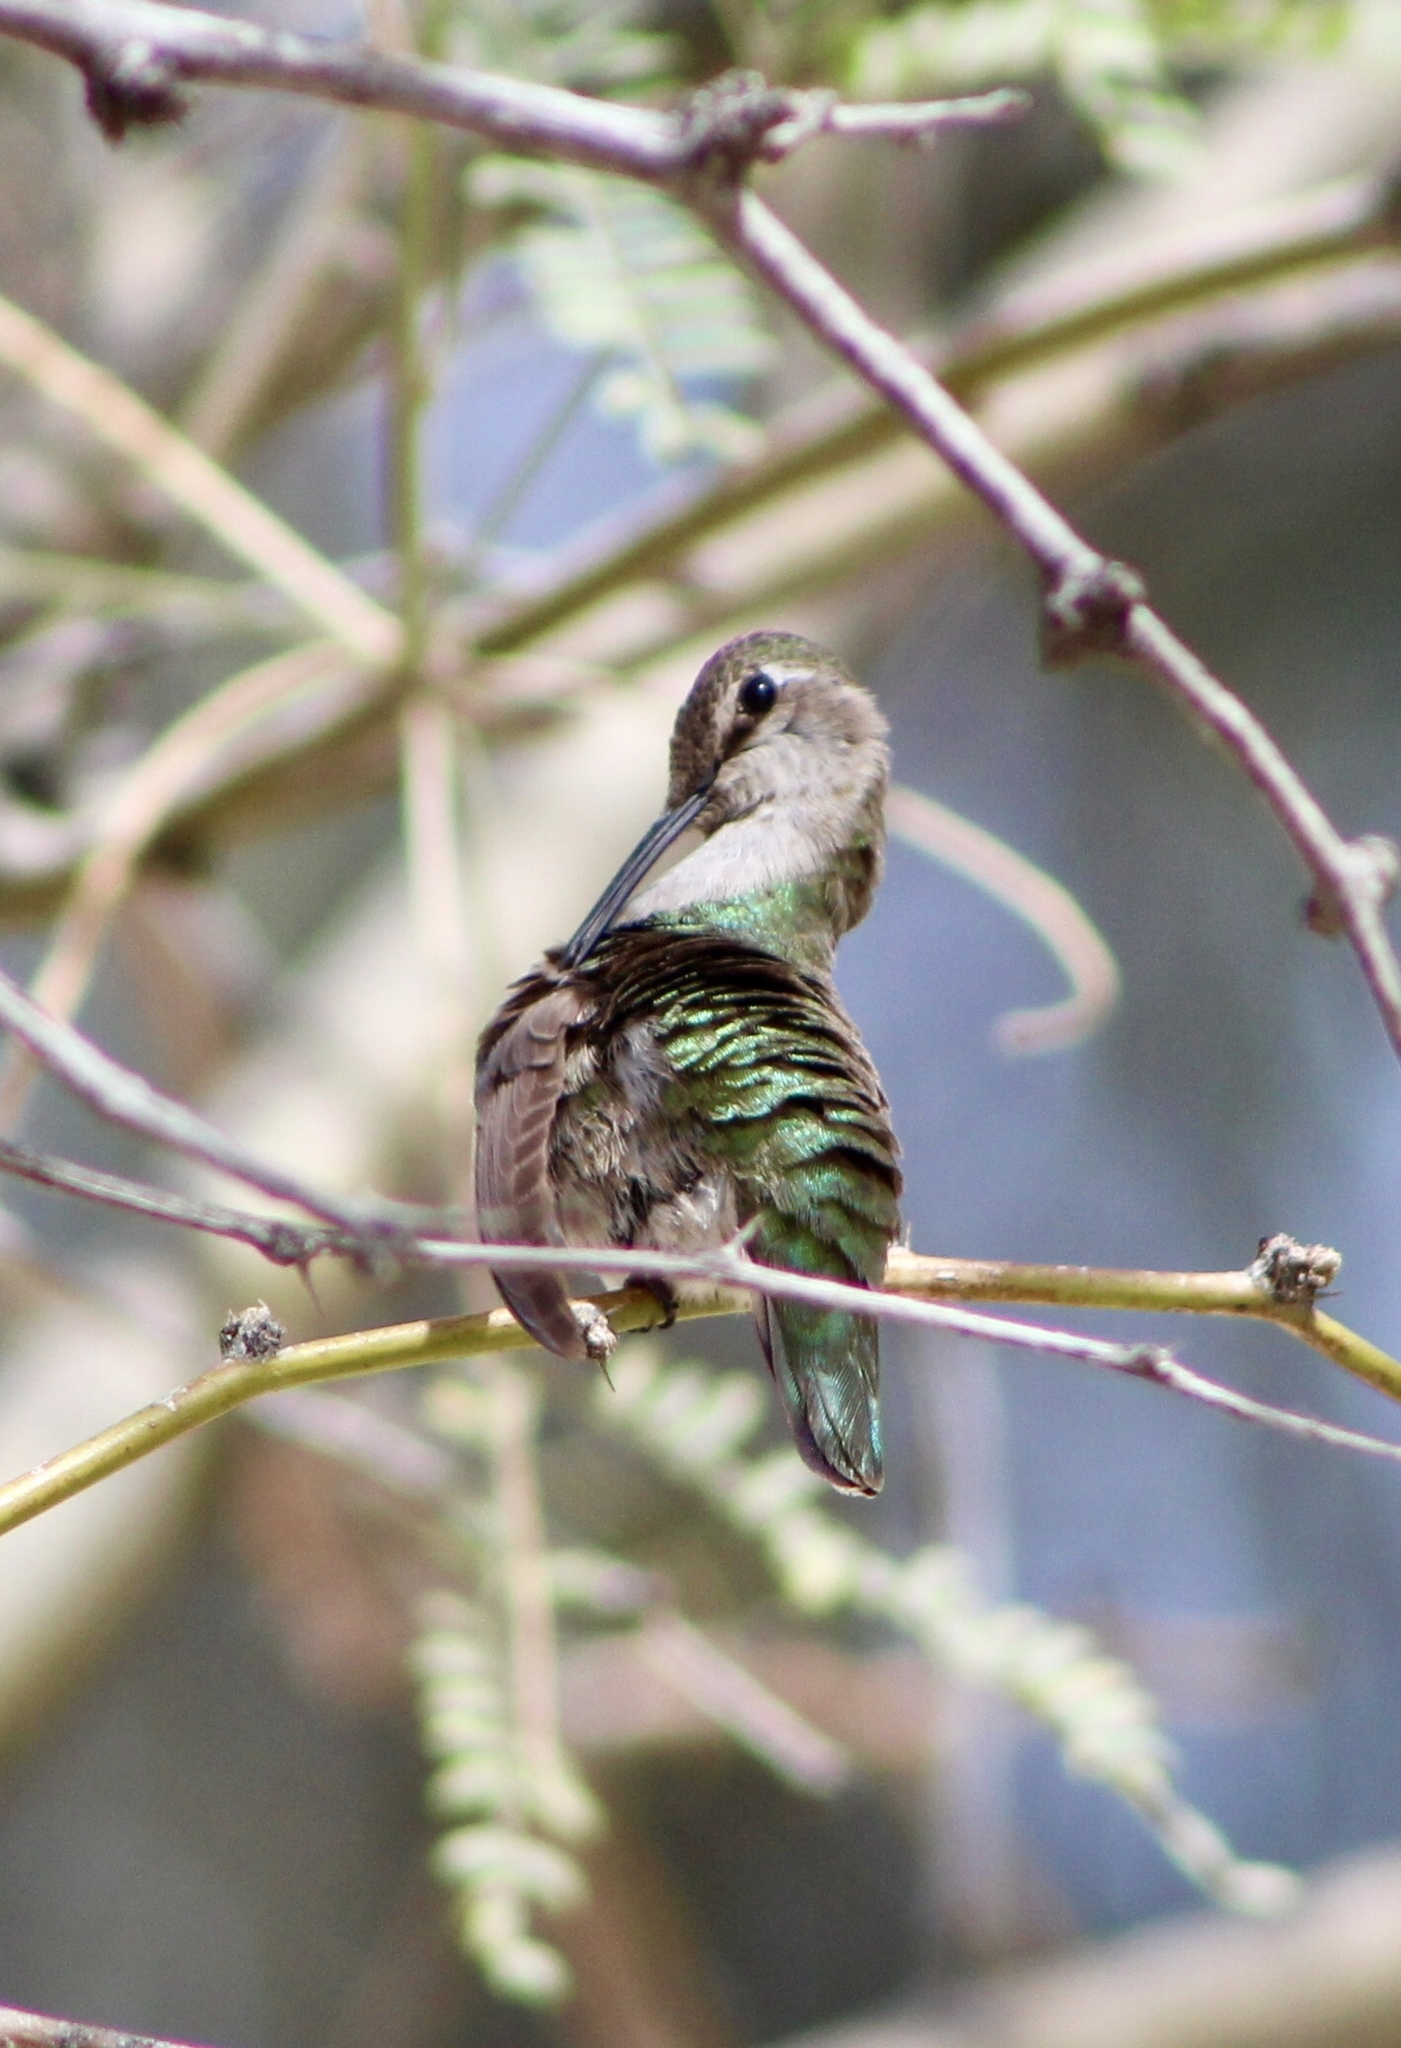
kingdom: Animalia
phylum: Chordata
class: Aves
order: Apodiformes
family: Trochilidae
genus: Calypte
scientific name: Calypte anna
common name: Anna's hummingbird
